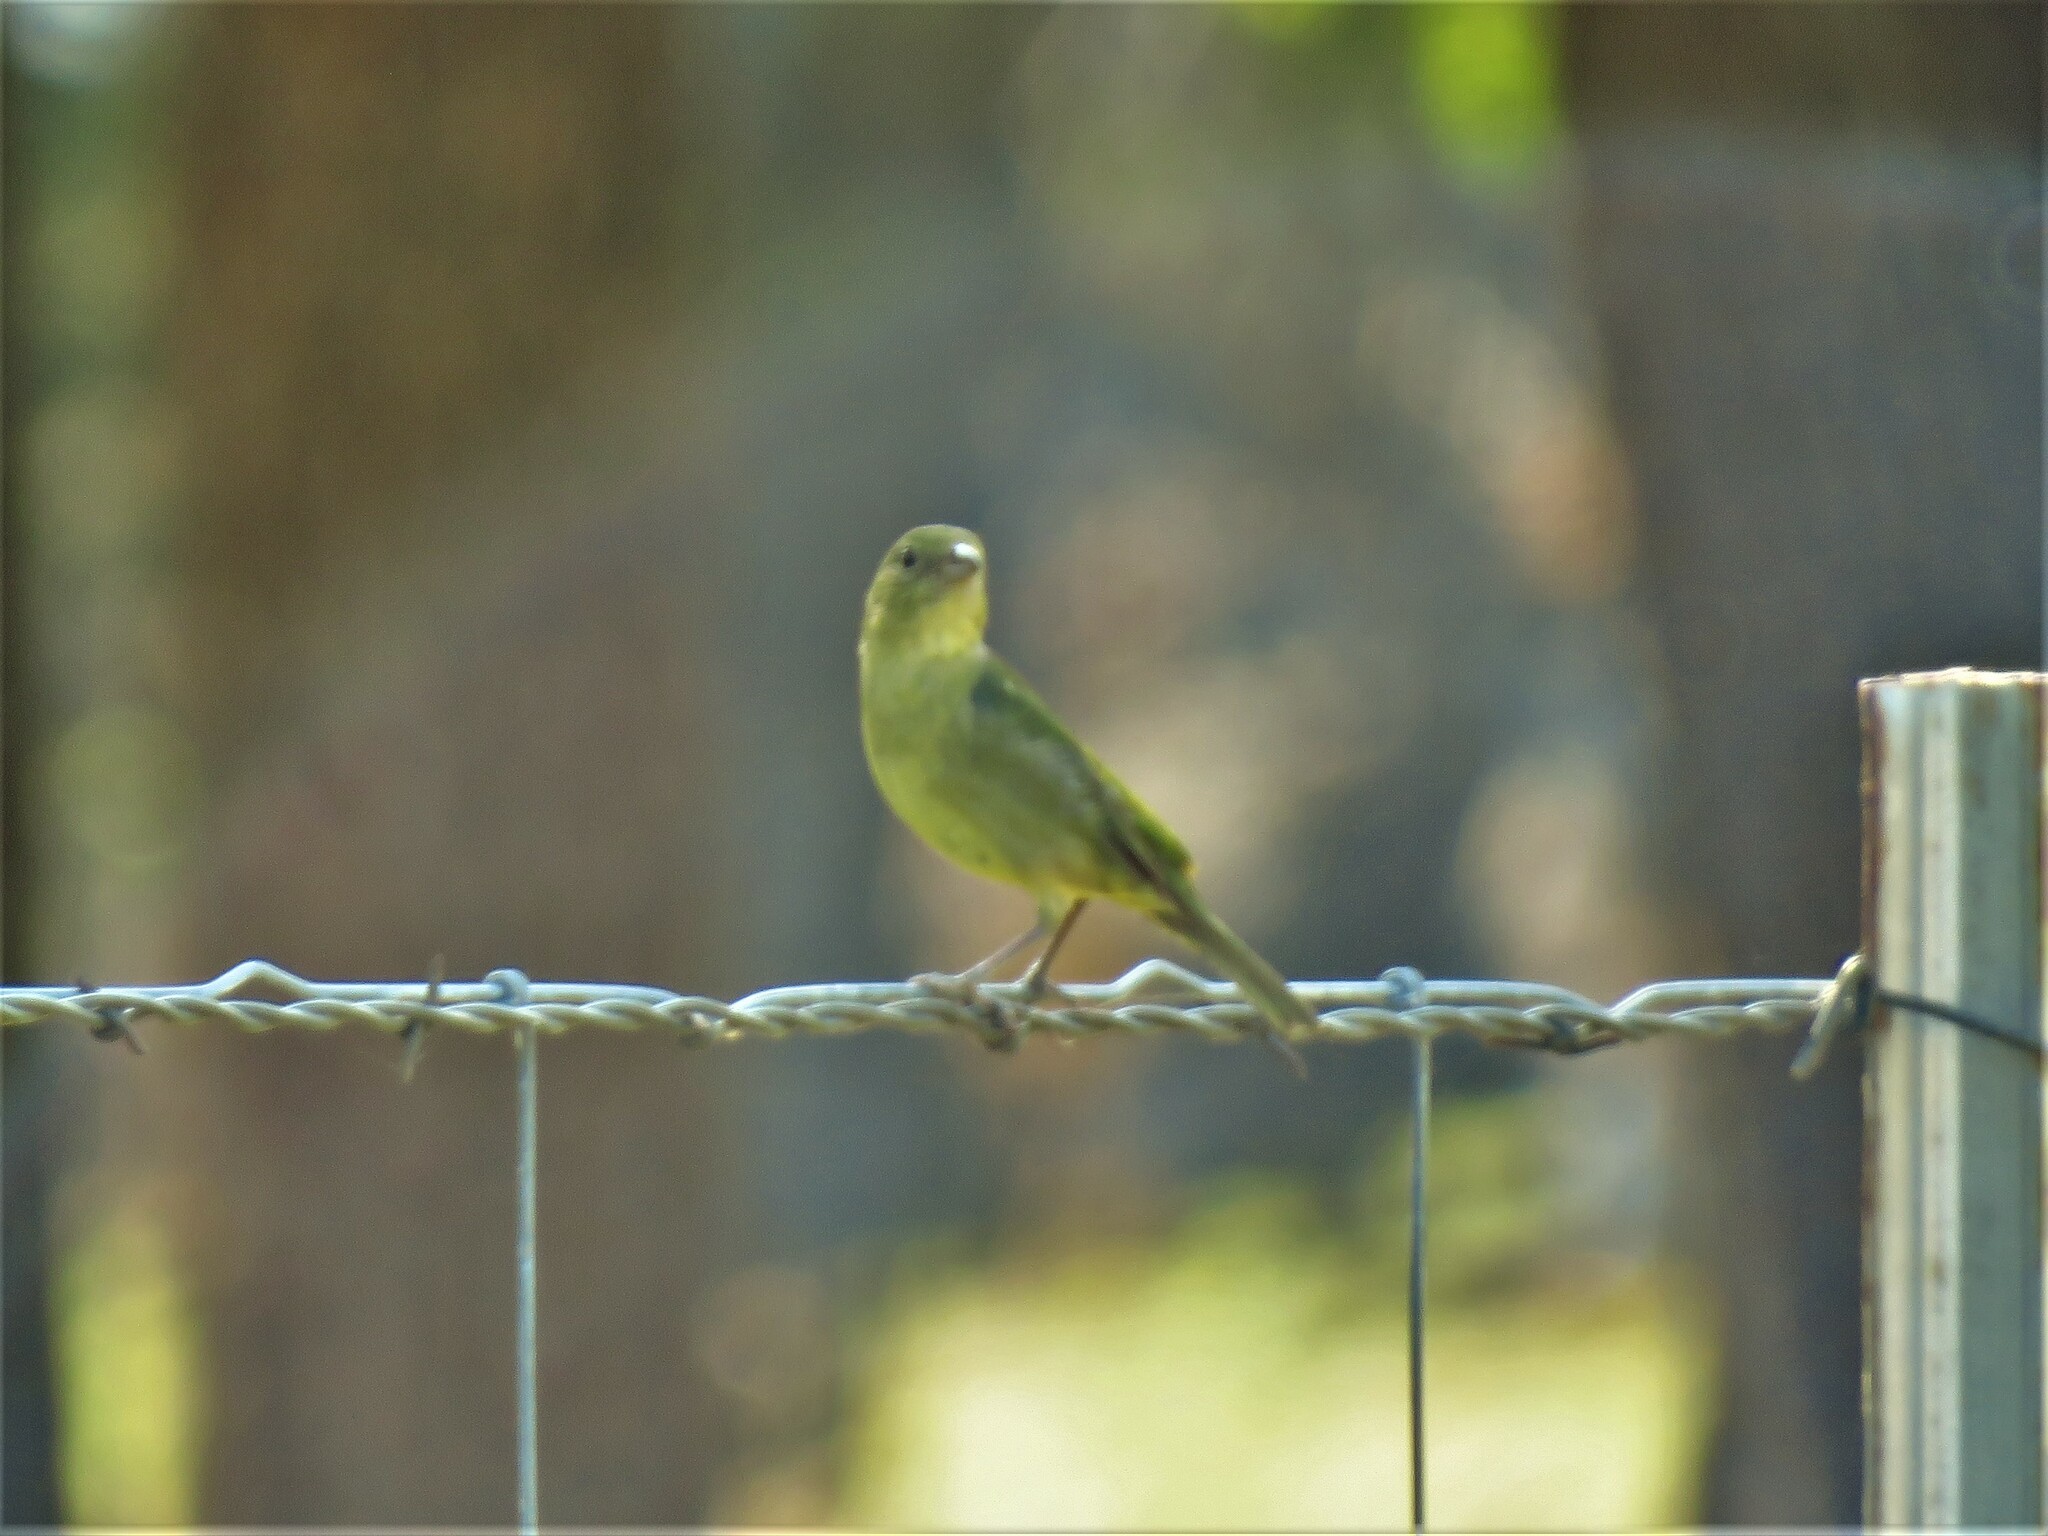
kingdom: Animalia
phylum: Chordata
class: Aves
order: Passeriformes
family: Cardinalidae
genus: Passerina
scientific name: Passerina ciris
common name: Painted bunting
